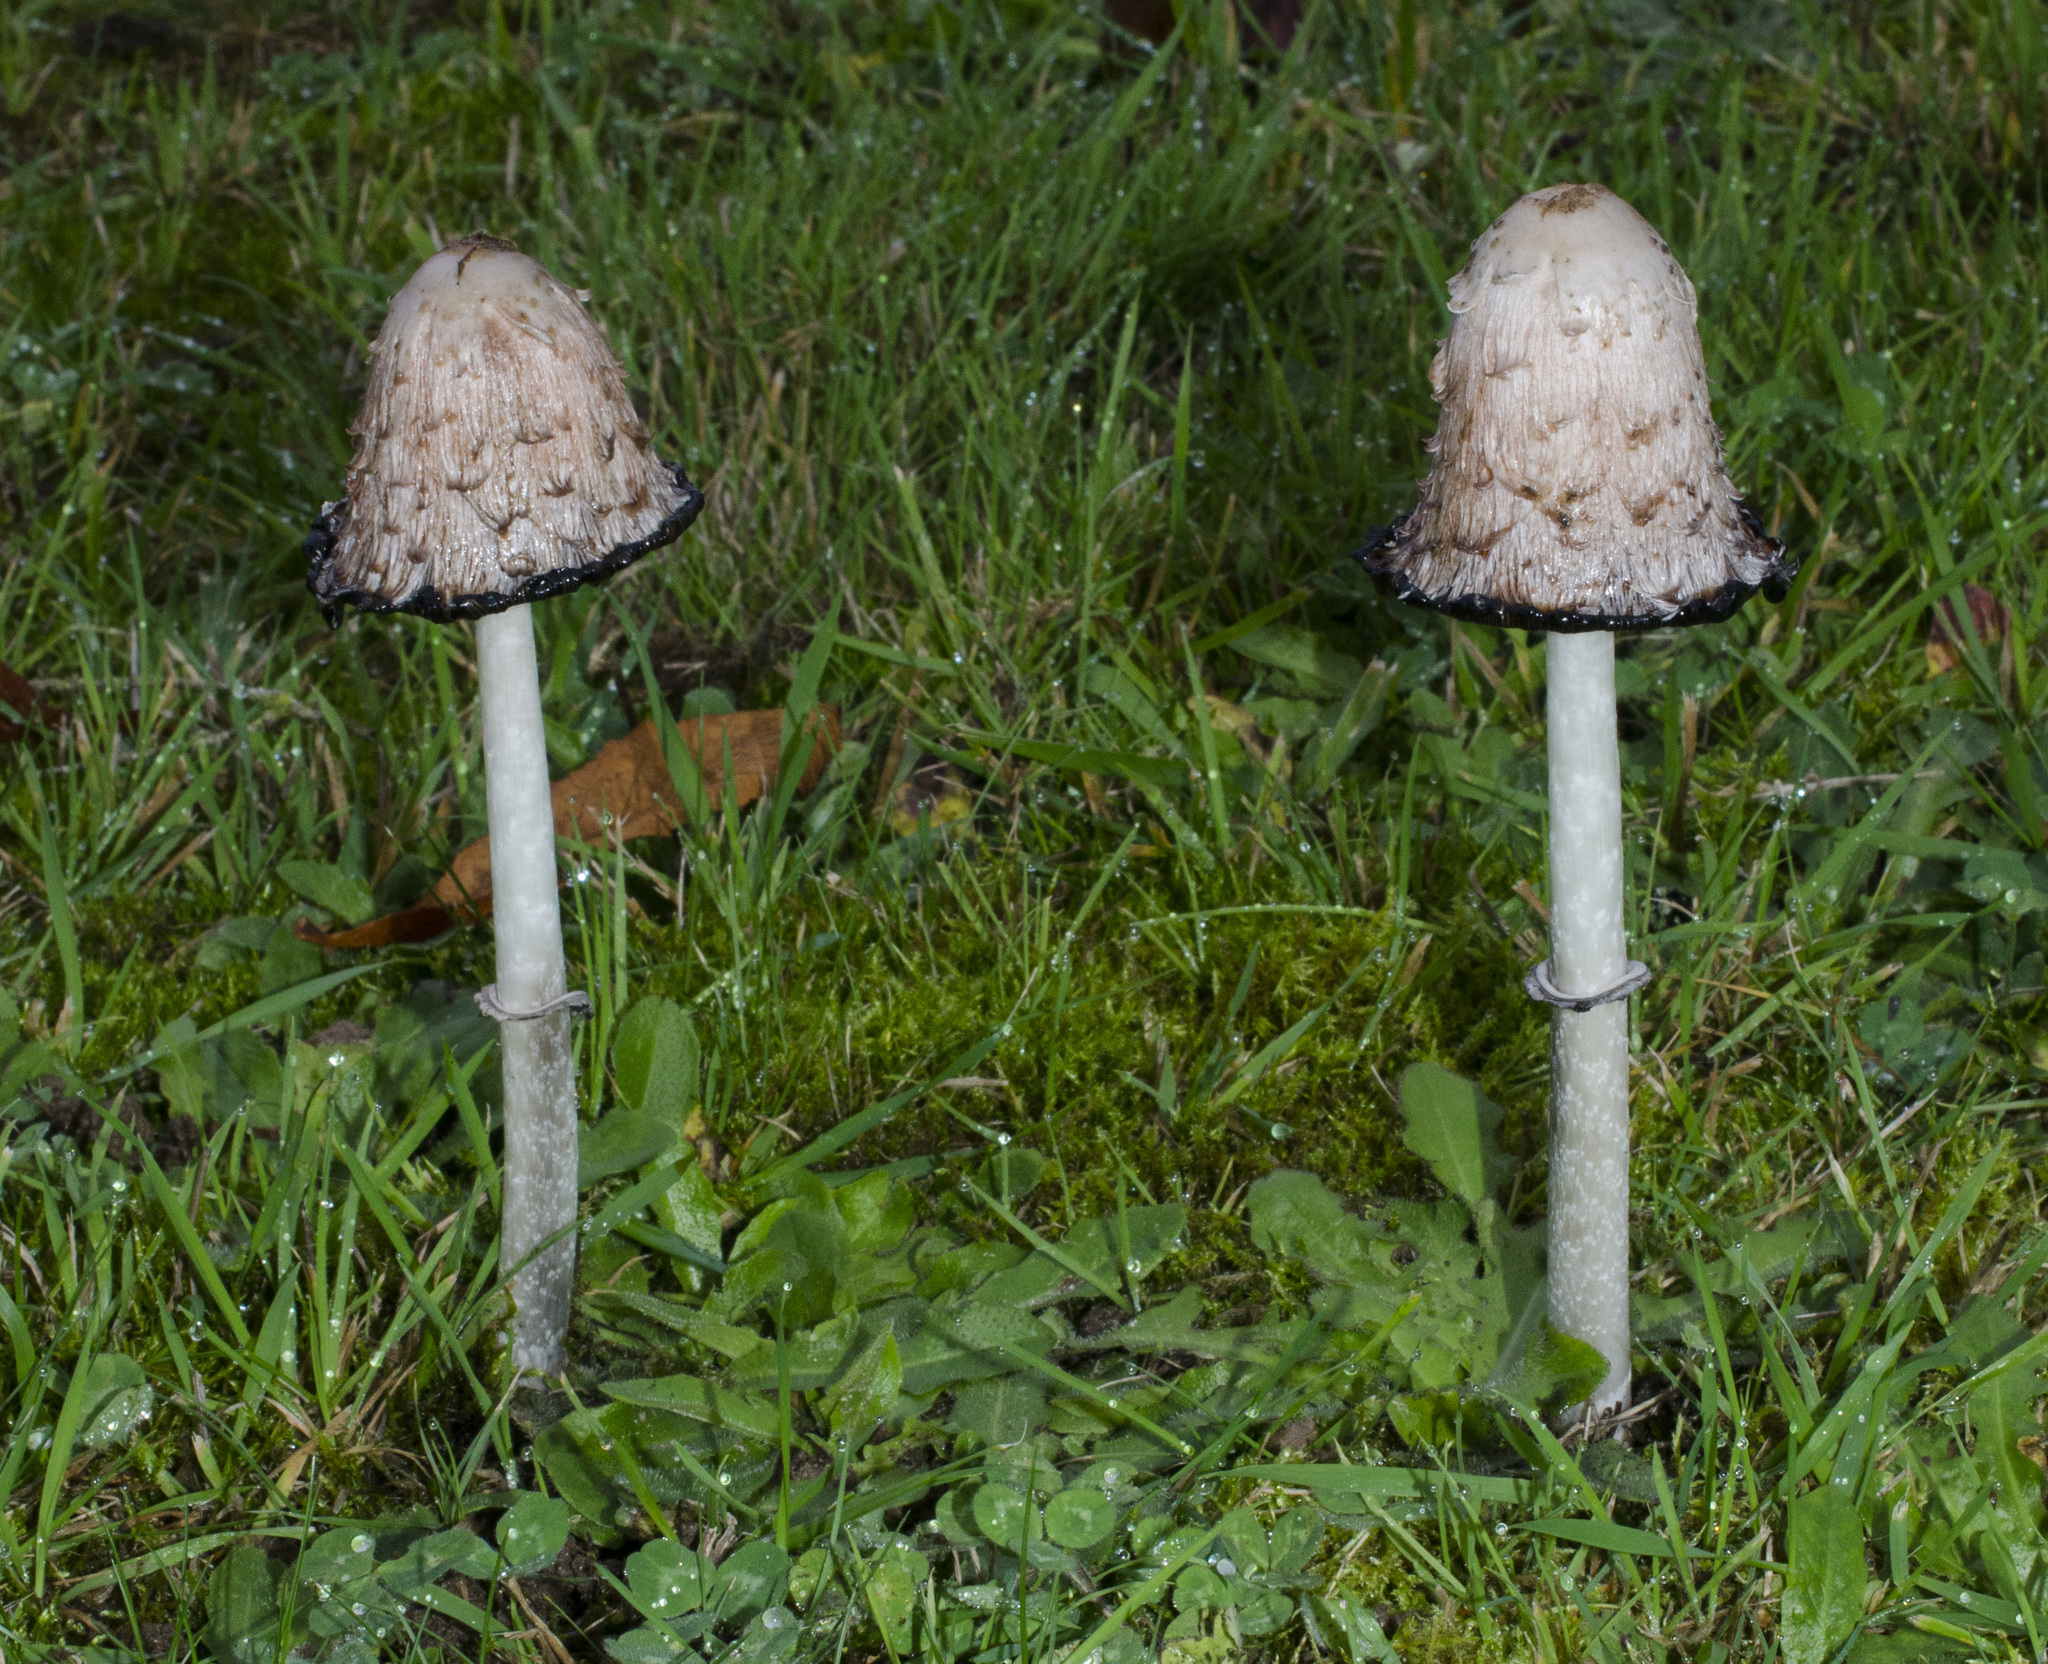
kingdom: Fungi
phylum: Basidiomycota
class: Agaricomycetes
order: Agaricales
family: Agaricaceae
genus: Coprinus
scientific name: Coprinus comatus
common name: Lawyer's wig
